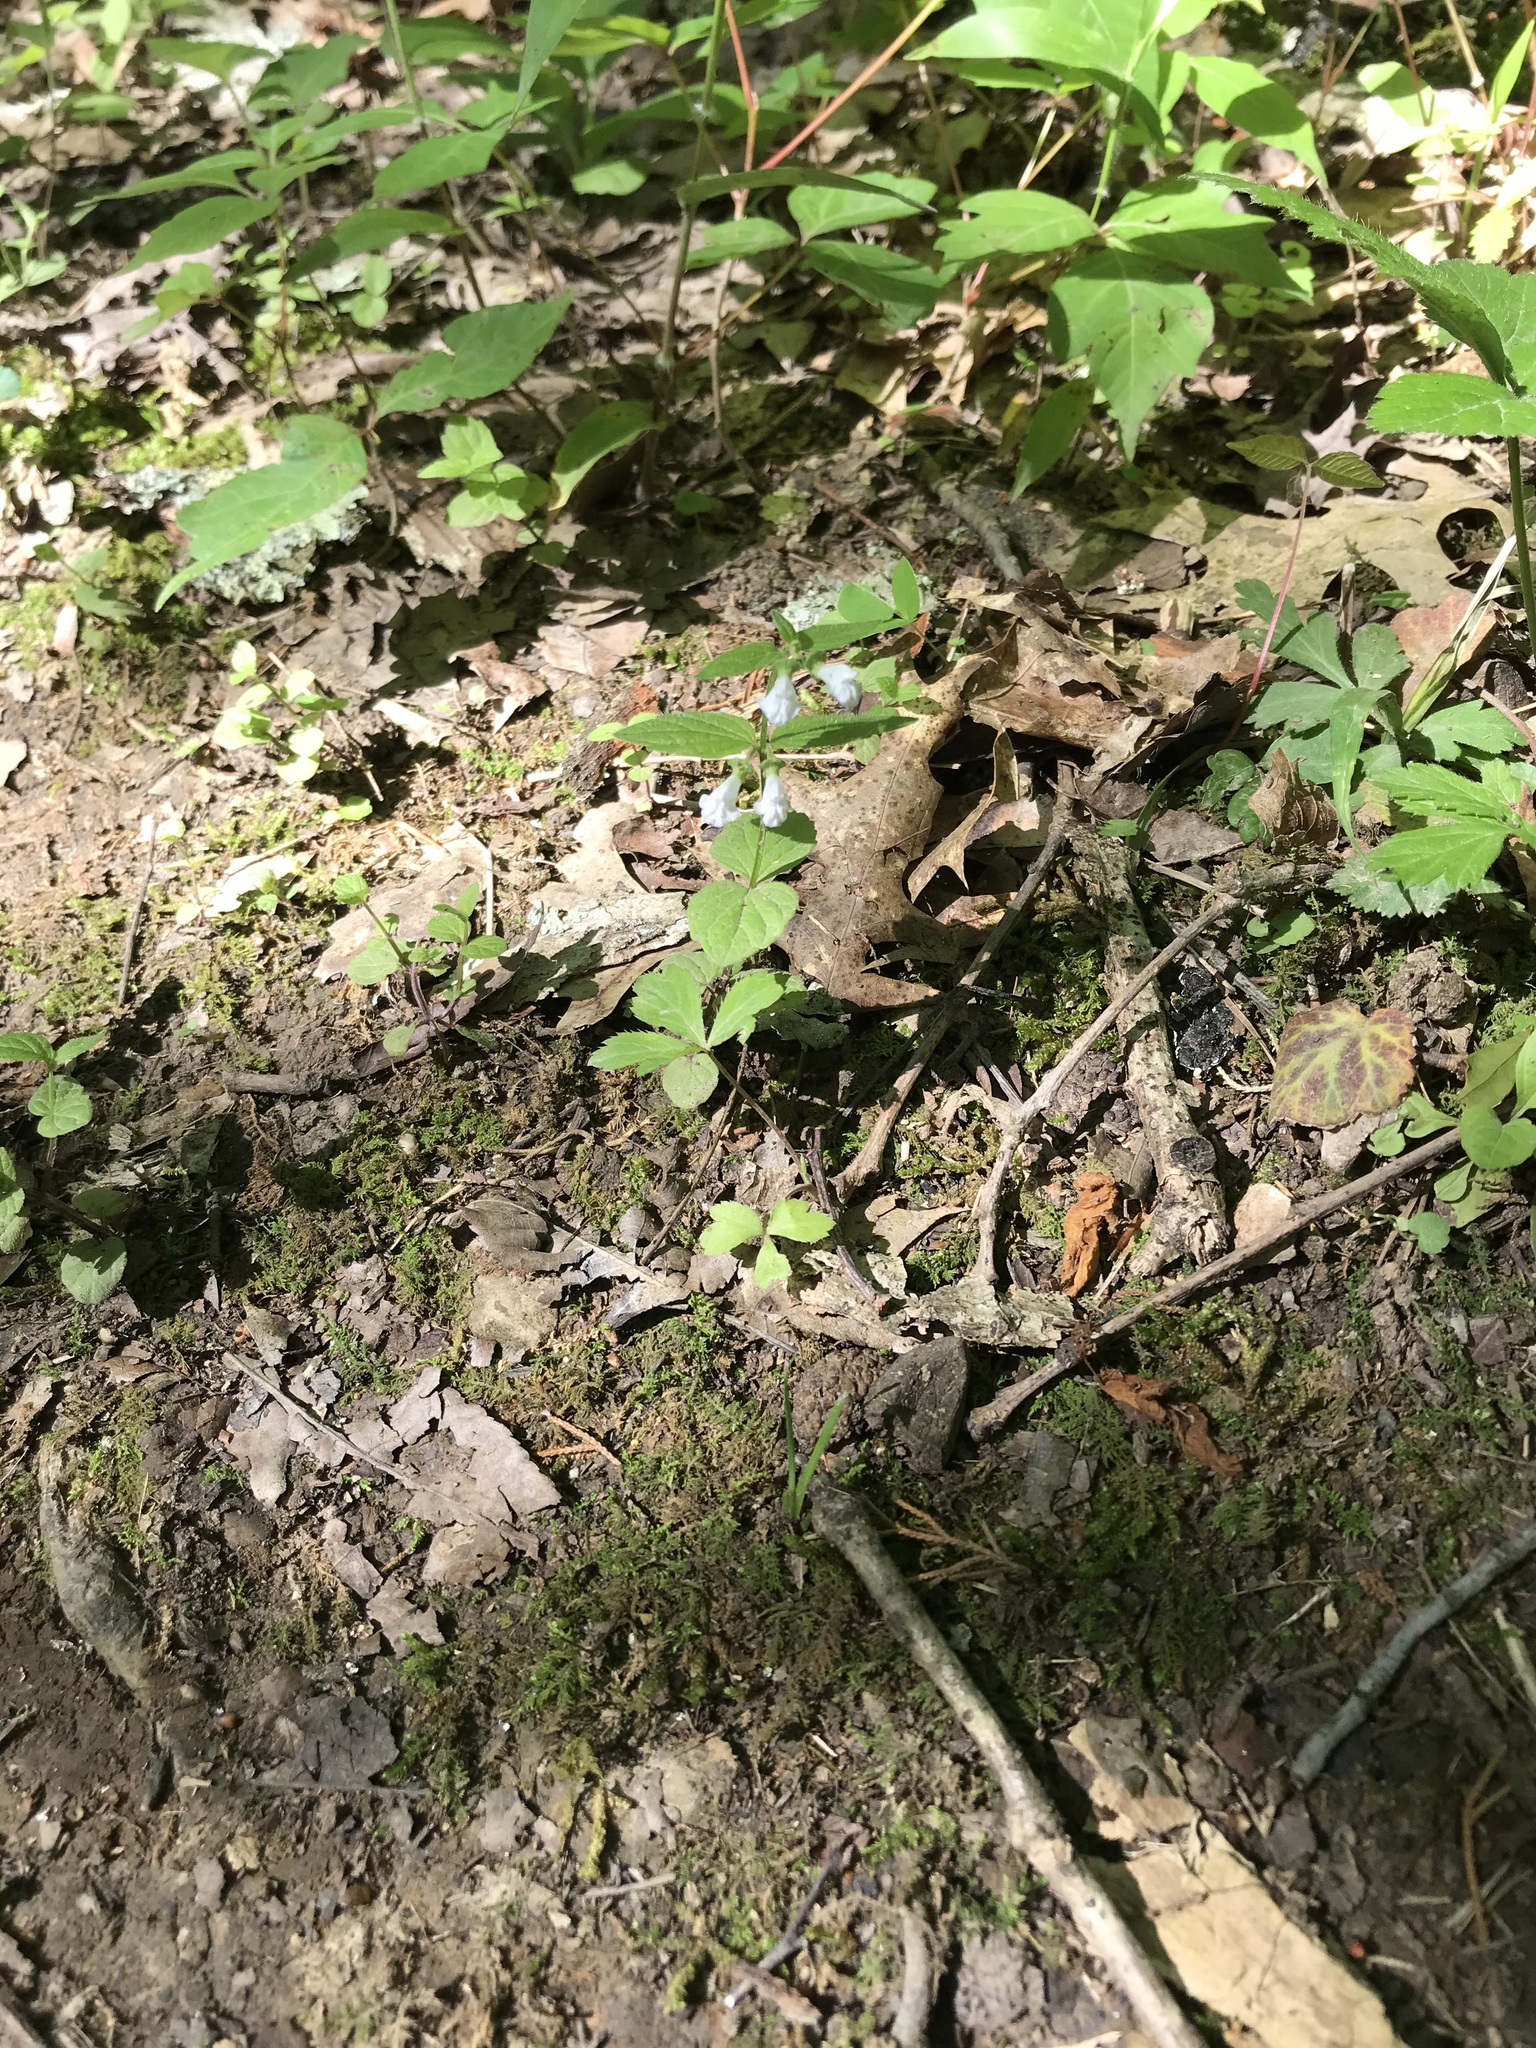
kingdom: Plantae
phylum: Tracheophyta
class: Magnoliopsida
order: Lamiales
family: Lamiaceae
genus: Scutellaria
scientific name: Scutellaria nervosa
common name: Bottomland skullcap
